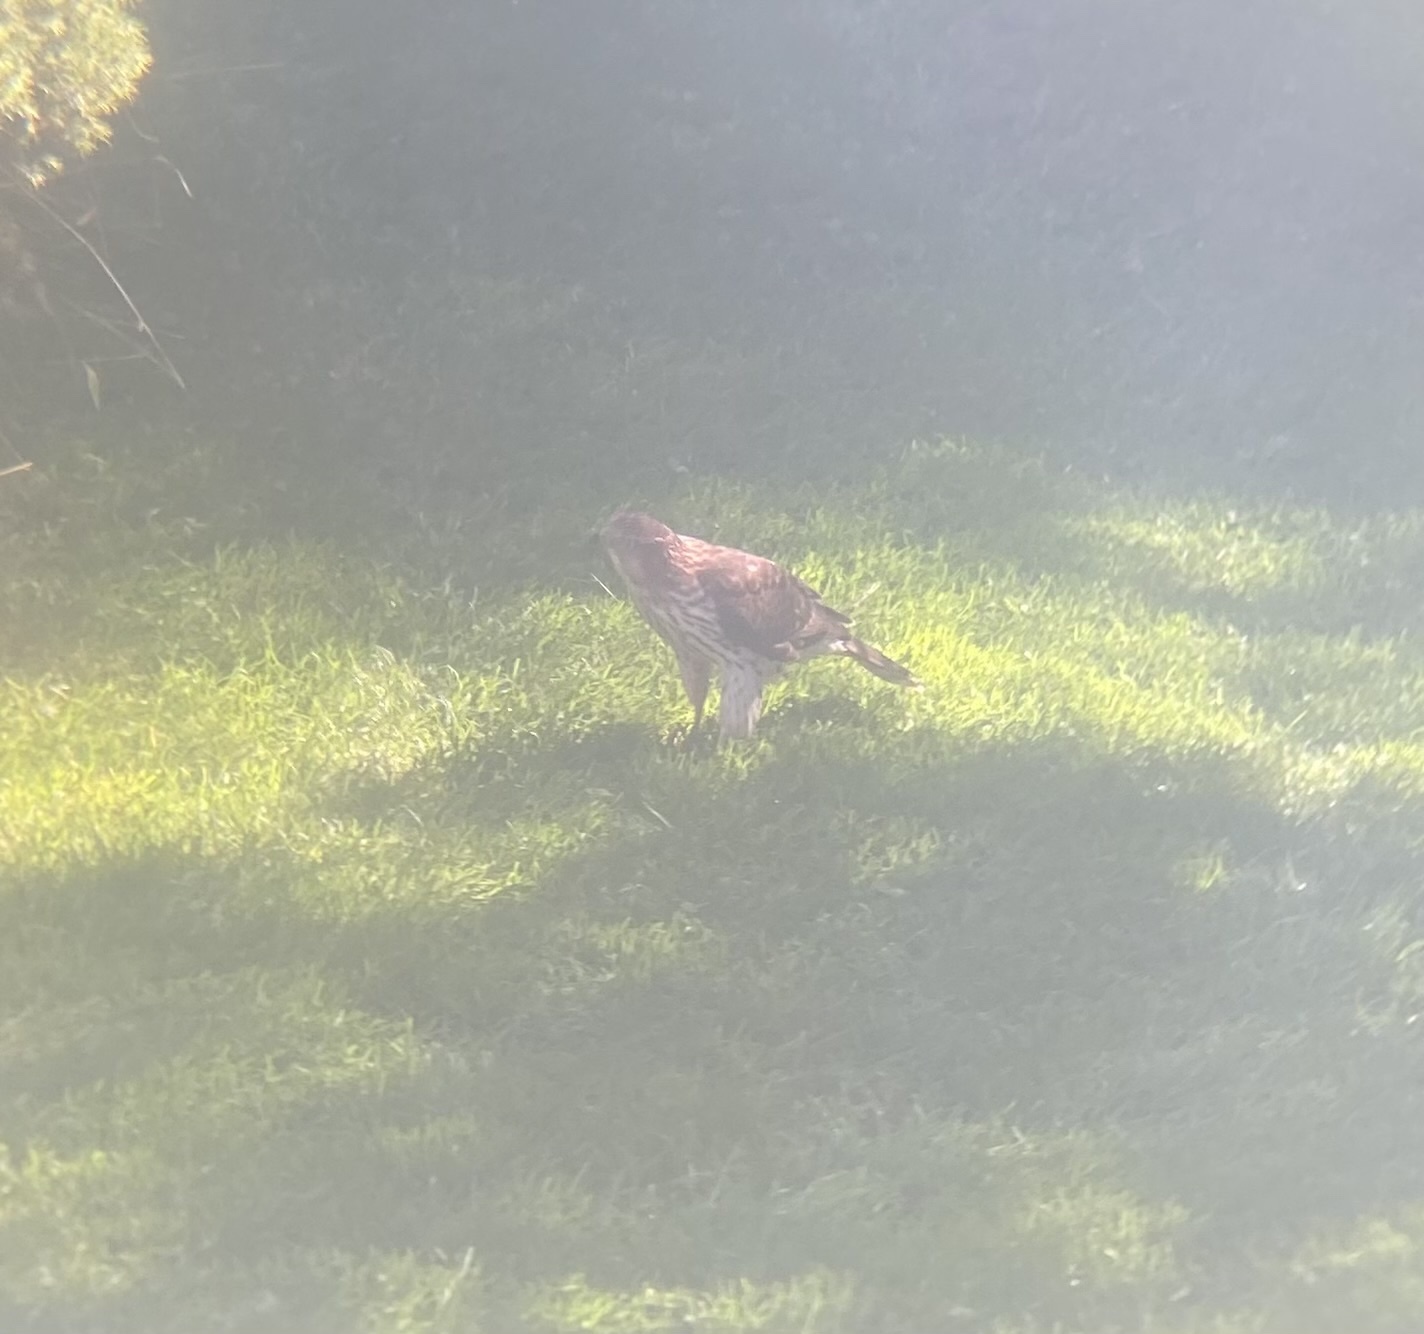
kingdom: Animalia
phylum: Chordata
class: Aves
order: Accipitriformes
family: Accipitridae
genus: Accipiter
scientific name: Accipiter cooperii
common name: Cooper's hawk
